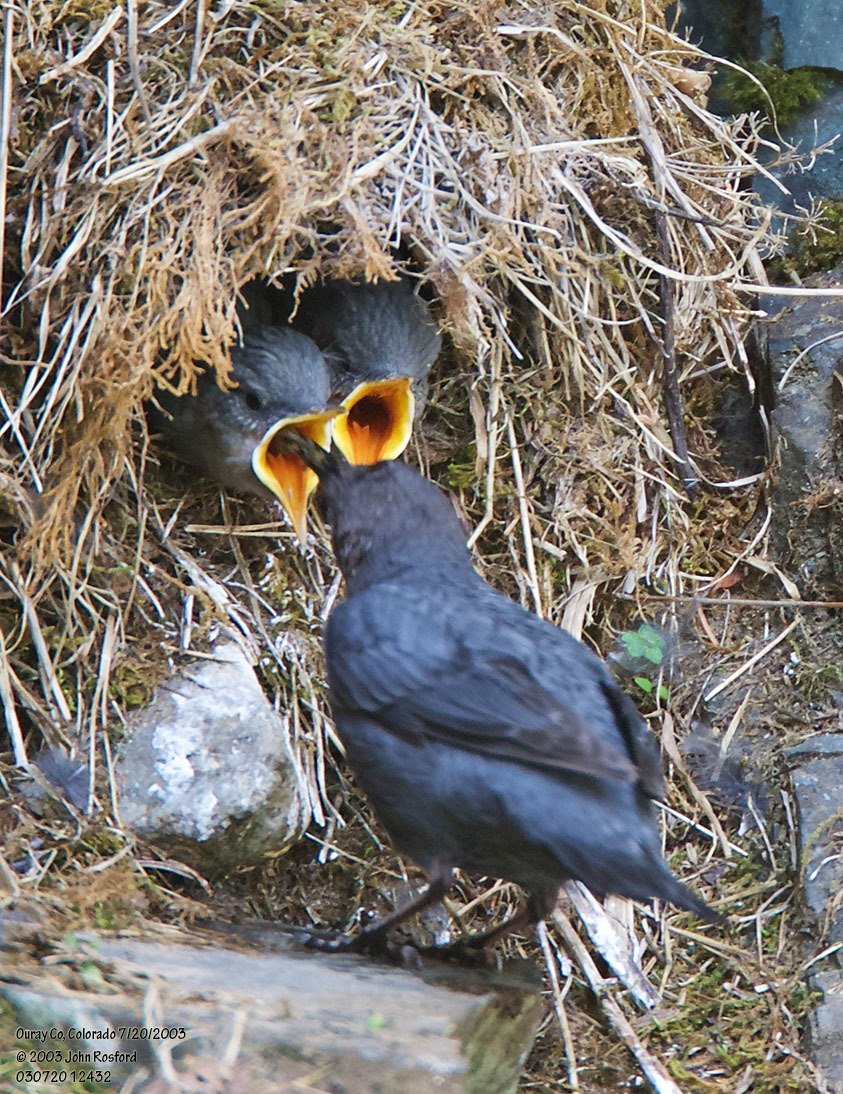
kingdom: Animalia
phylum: Chordata
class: Aves
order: Passeriformes
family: Cinclidae
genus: Cinclus
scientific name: Cinclus mexicanus
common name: American dipper
